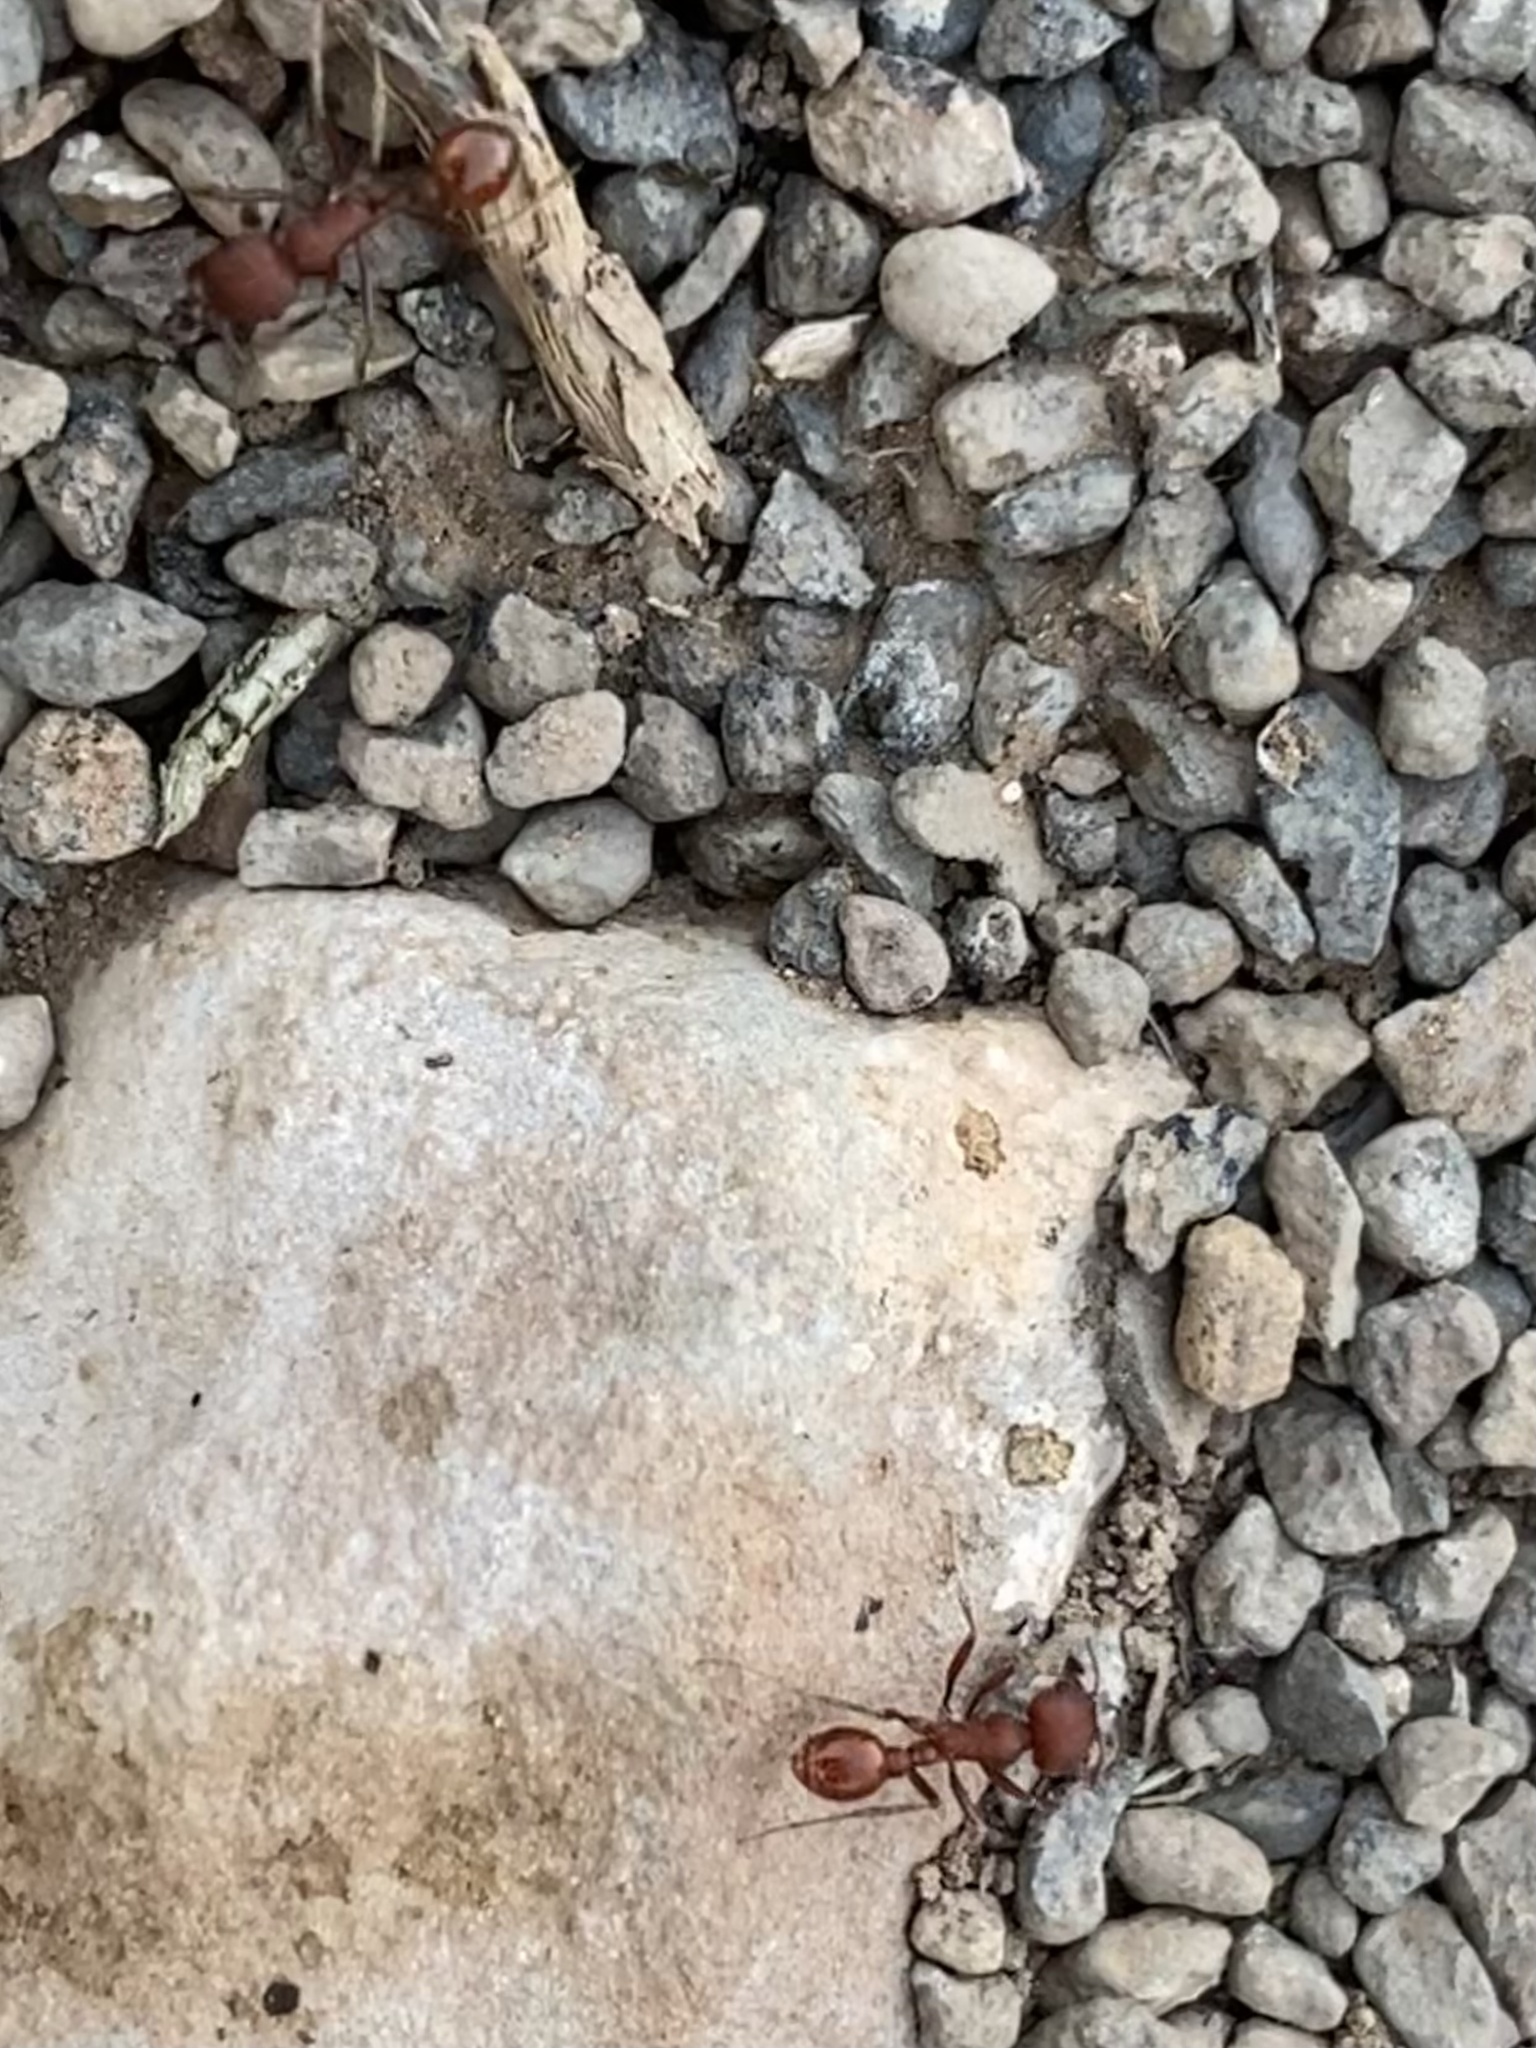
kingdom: Animalia
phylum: Arthropoda
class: Insecta
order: Hymenoptera
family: Formicidae
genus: Pogonomyrmex
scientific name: Pogonomyrmex
